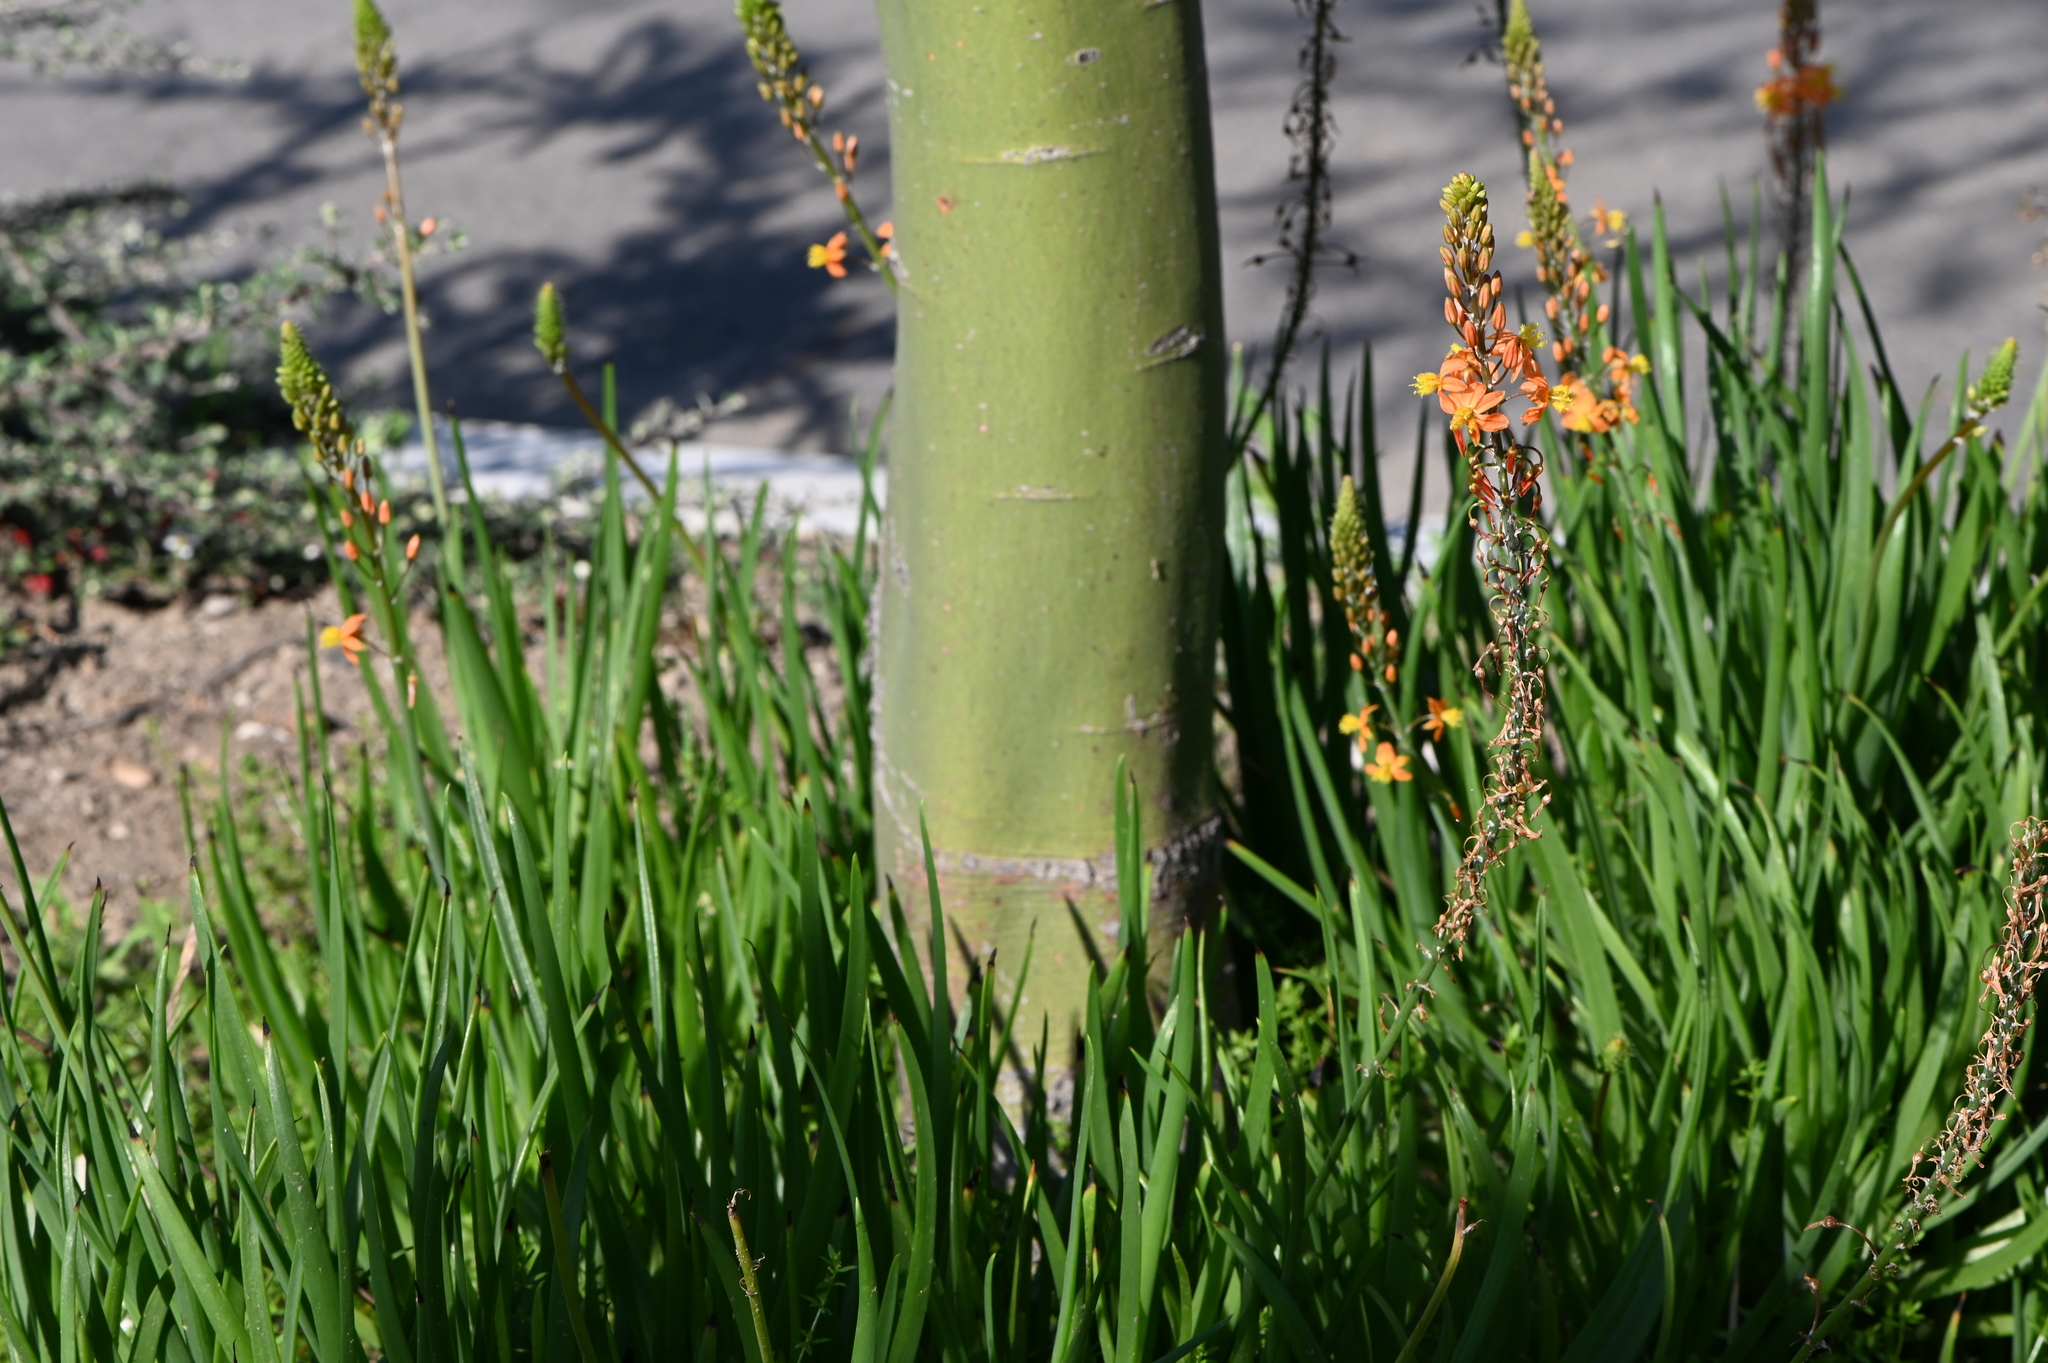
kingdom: Plantae
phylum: Tracheophyta
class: Liliopsida
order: Asparagales
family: Asphodelaceae
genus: Bulbine
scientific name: Bulbine frutescens
